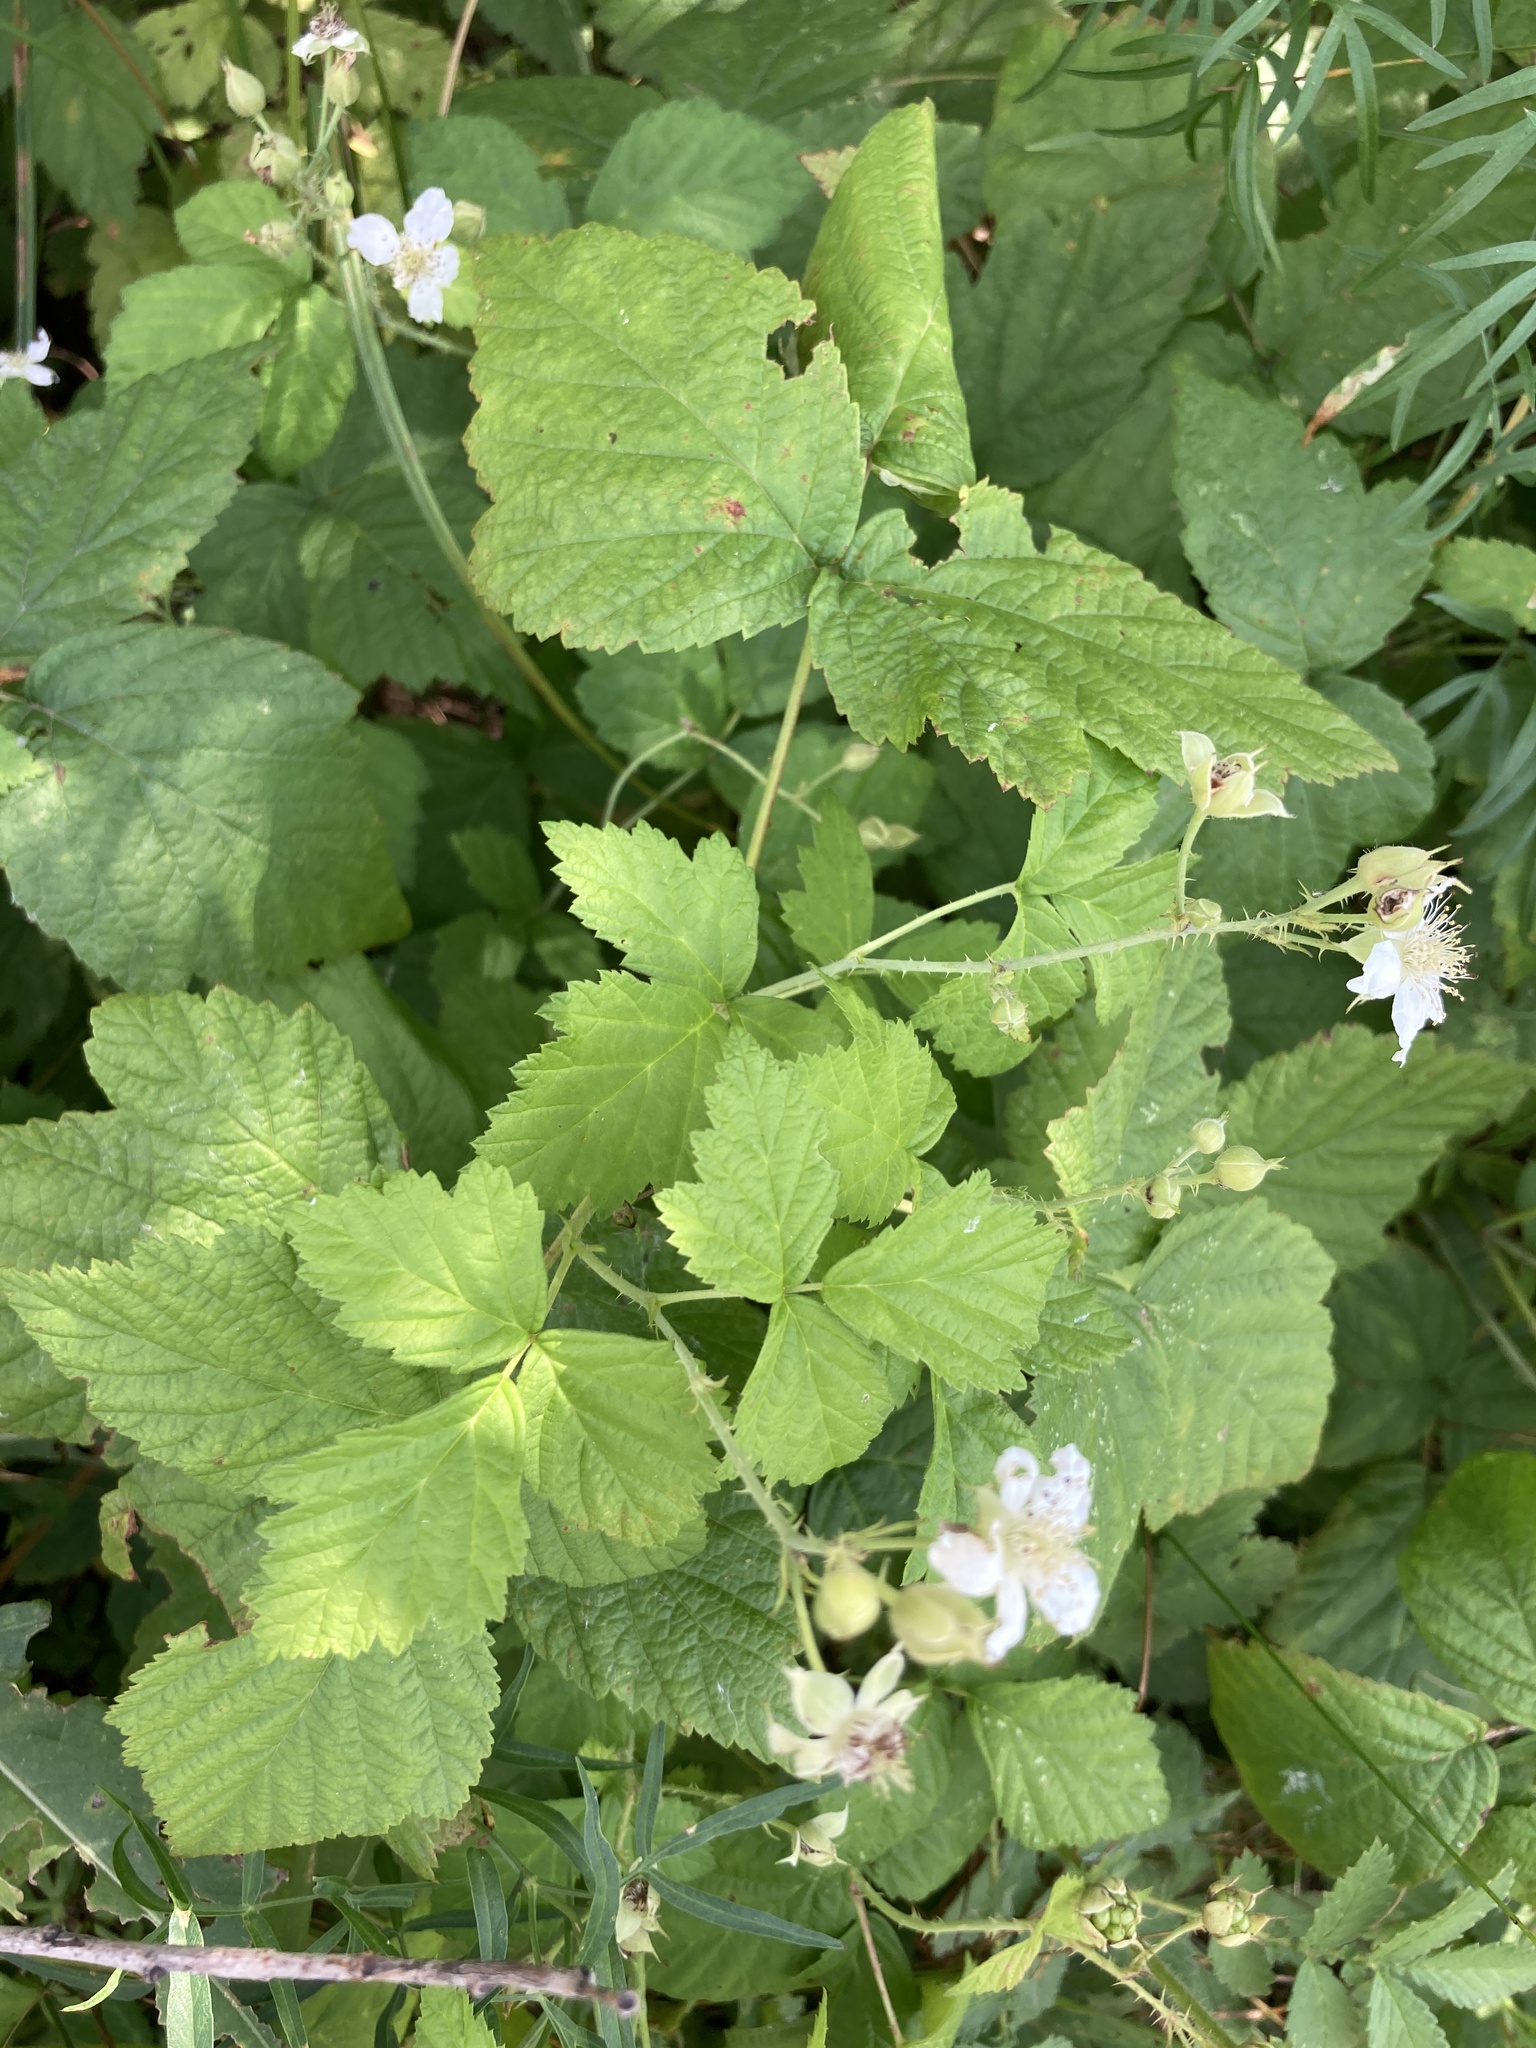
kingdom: Plantae
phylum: Tracheophyta
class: Magnoliopsida
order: Rosales
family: Rosaceae
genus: Rubus
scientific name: Rubus caesius
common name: Dewberry
